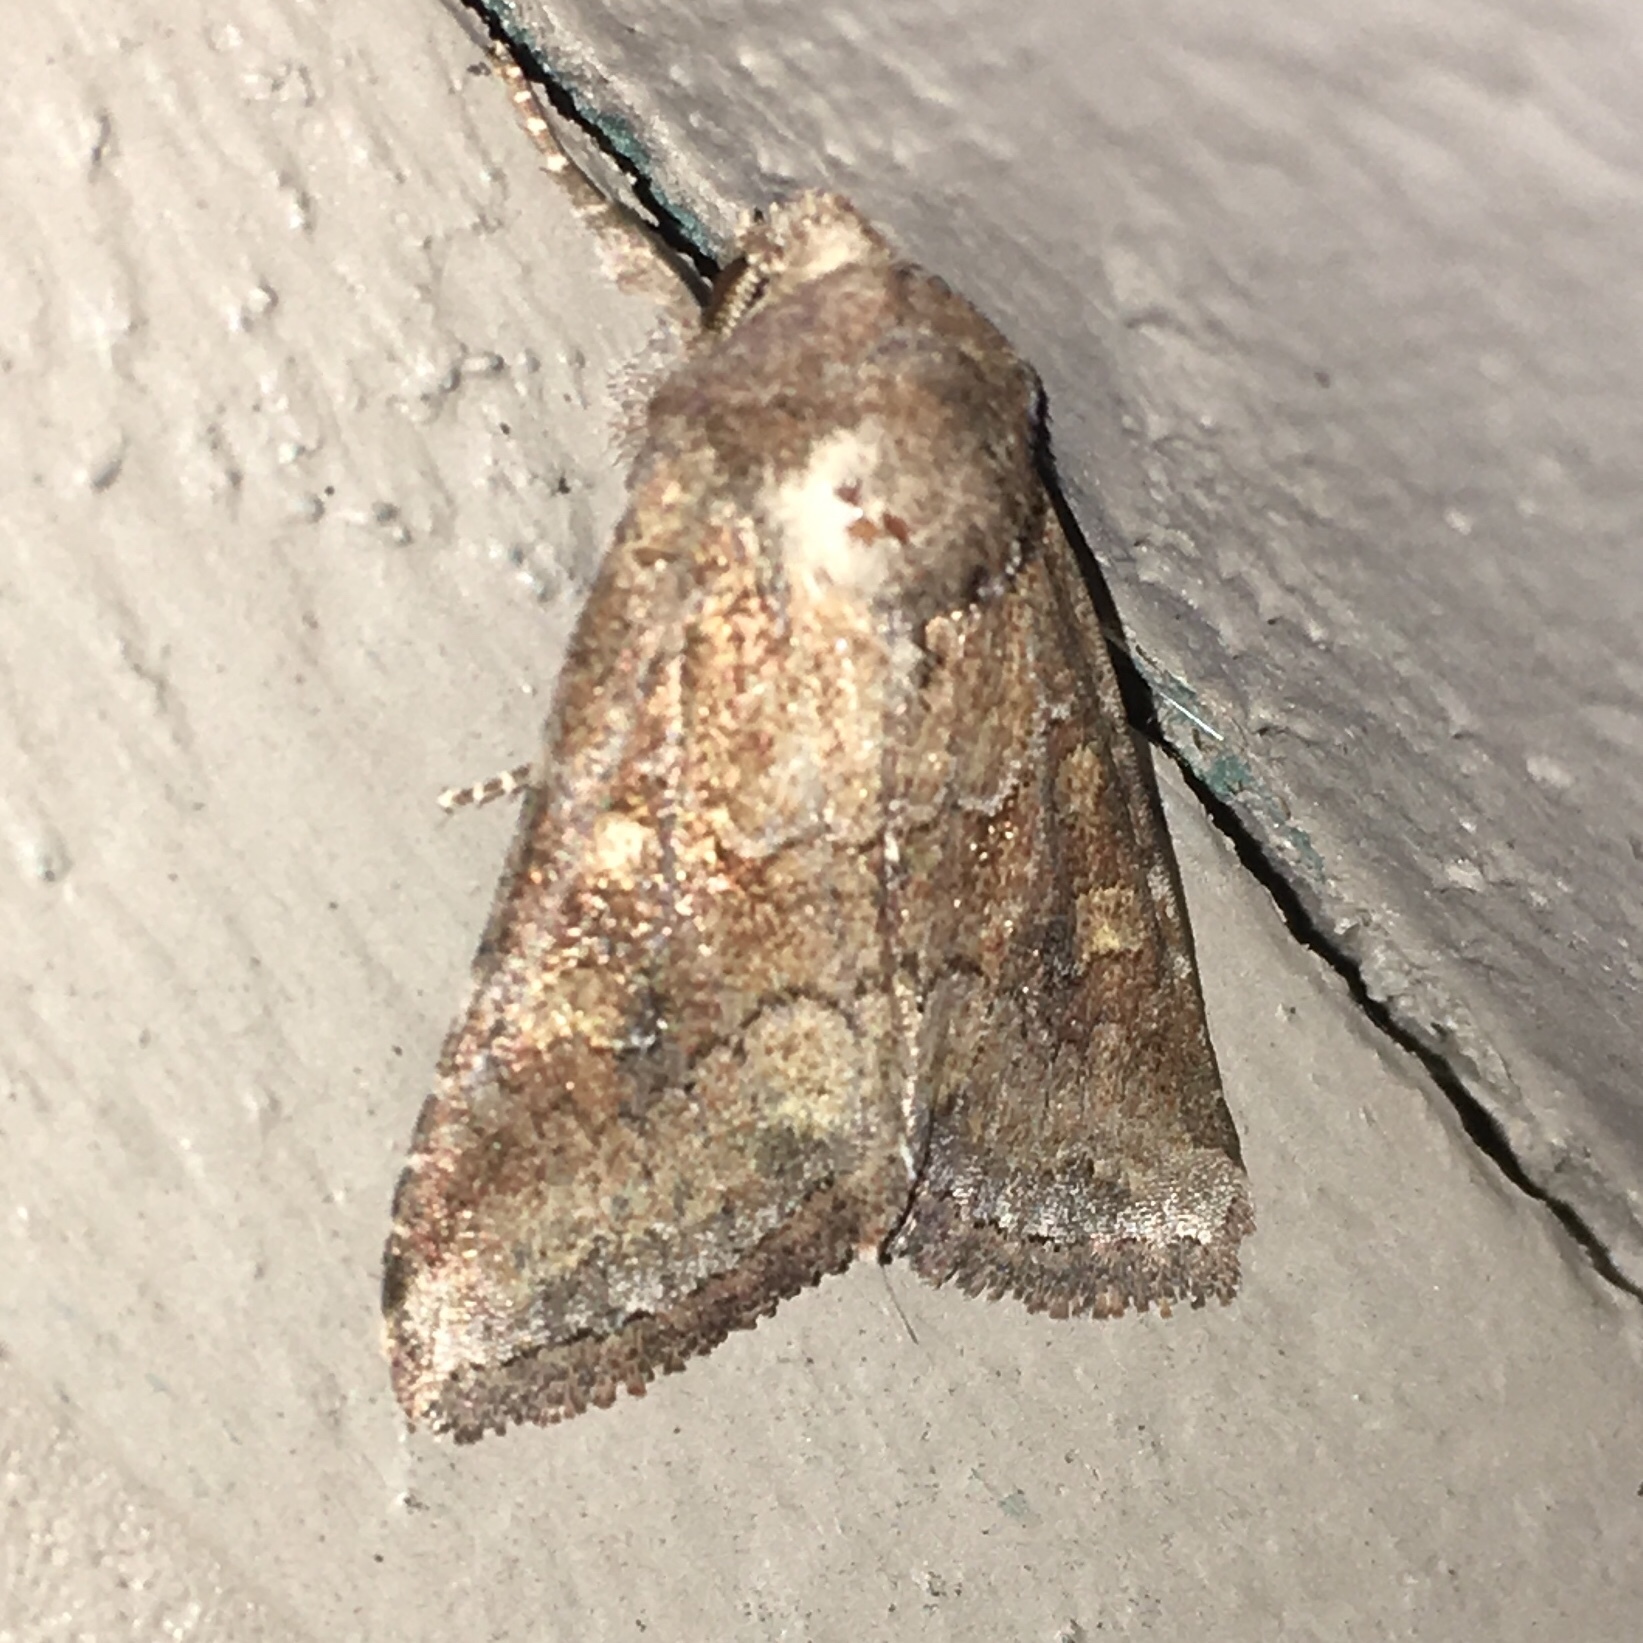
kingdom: Animalia
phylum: Arthropoda
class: Insecta
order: Lepidoptera
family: Noctuidae
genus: Tricholita
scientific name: Tricholita signata
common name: Signate quaker
